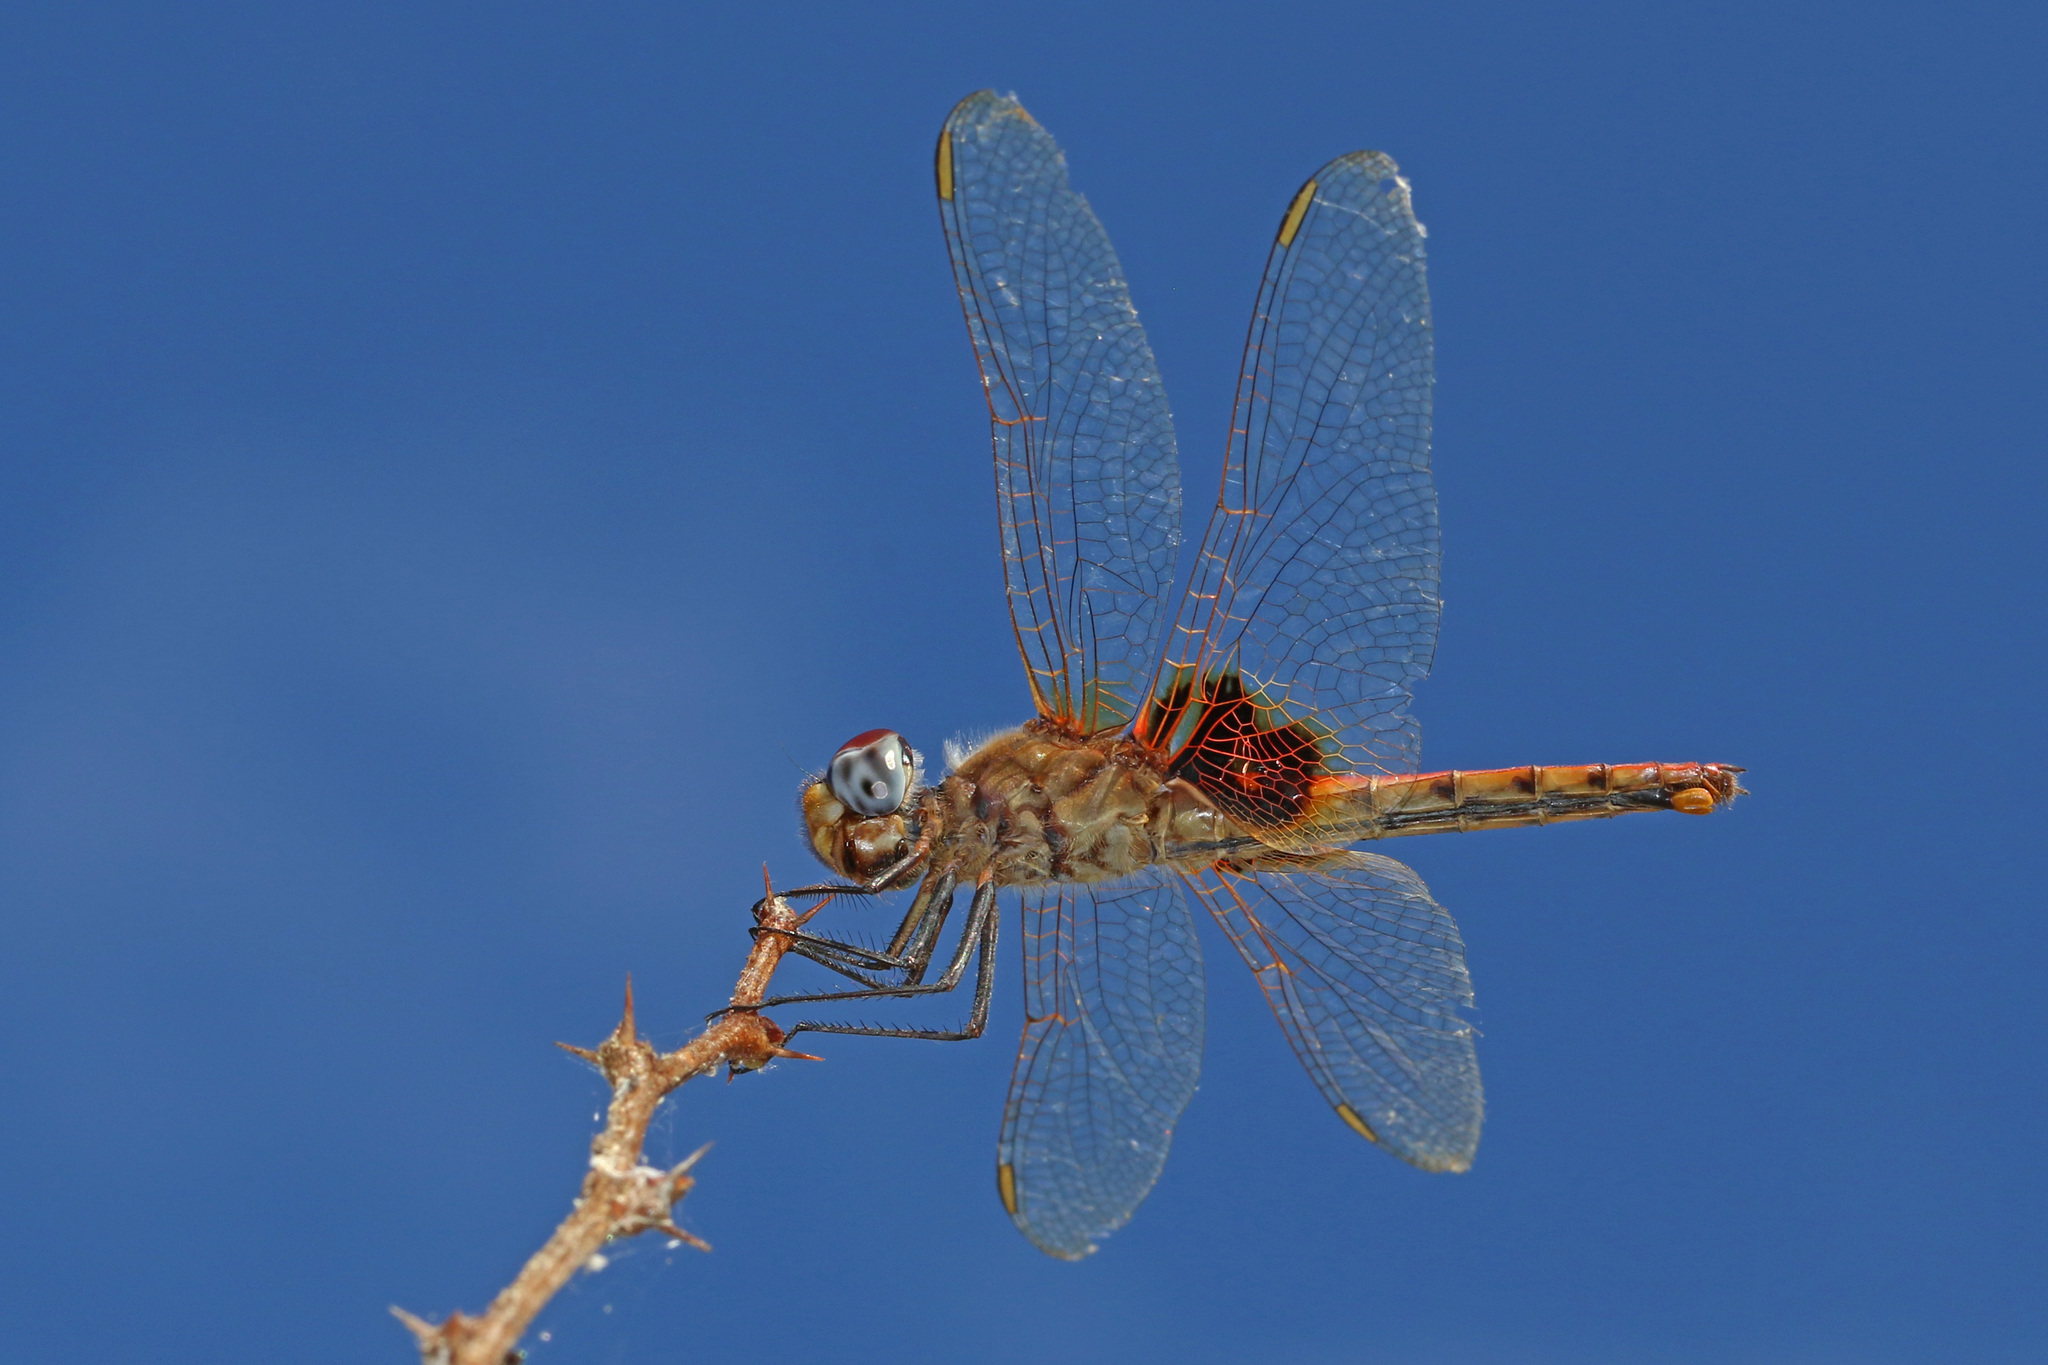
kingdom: Animalia
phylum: Arthropoda
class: Insecta
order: Odonata
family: Libellulidae
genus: Urothemis
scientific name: Urothemis assignata
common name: Red basker
